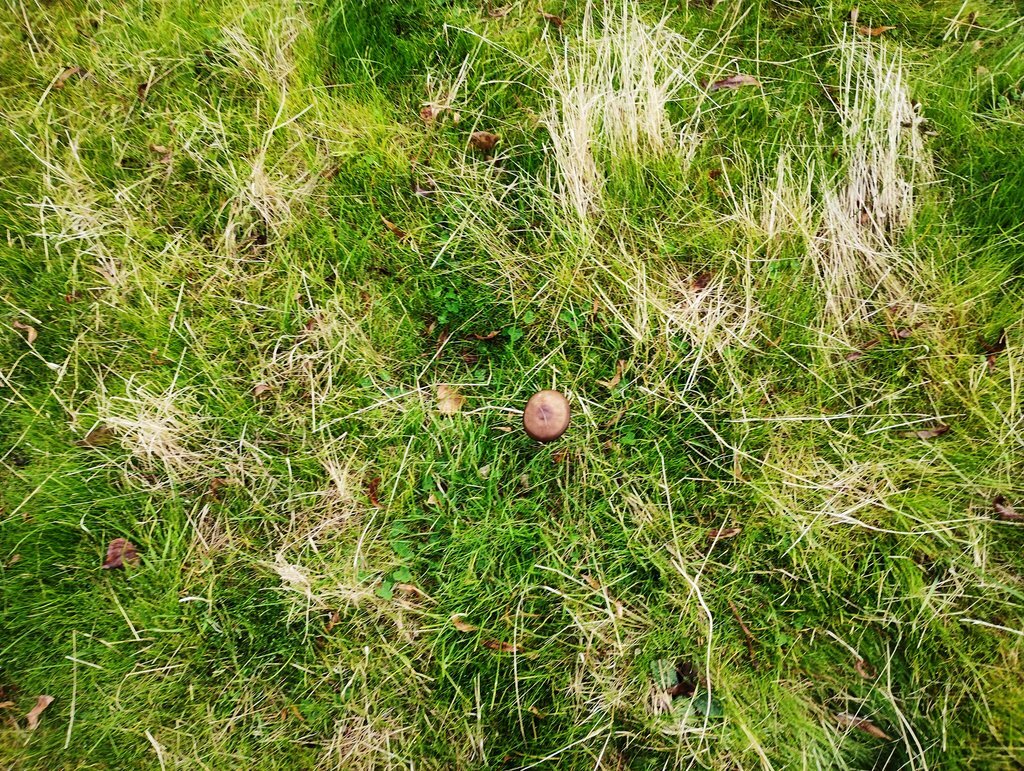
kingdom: Fungi
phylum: Basidiomycota
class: Agaricomycetes
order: Agaricales
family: Physalacriaceae
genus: Hymenopellis
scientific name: Hymenopellis gigaspora
